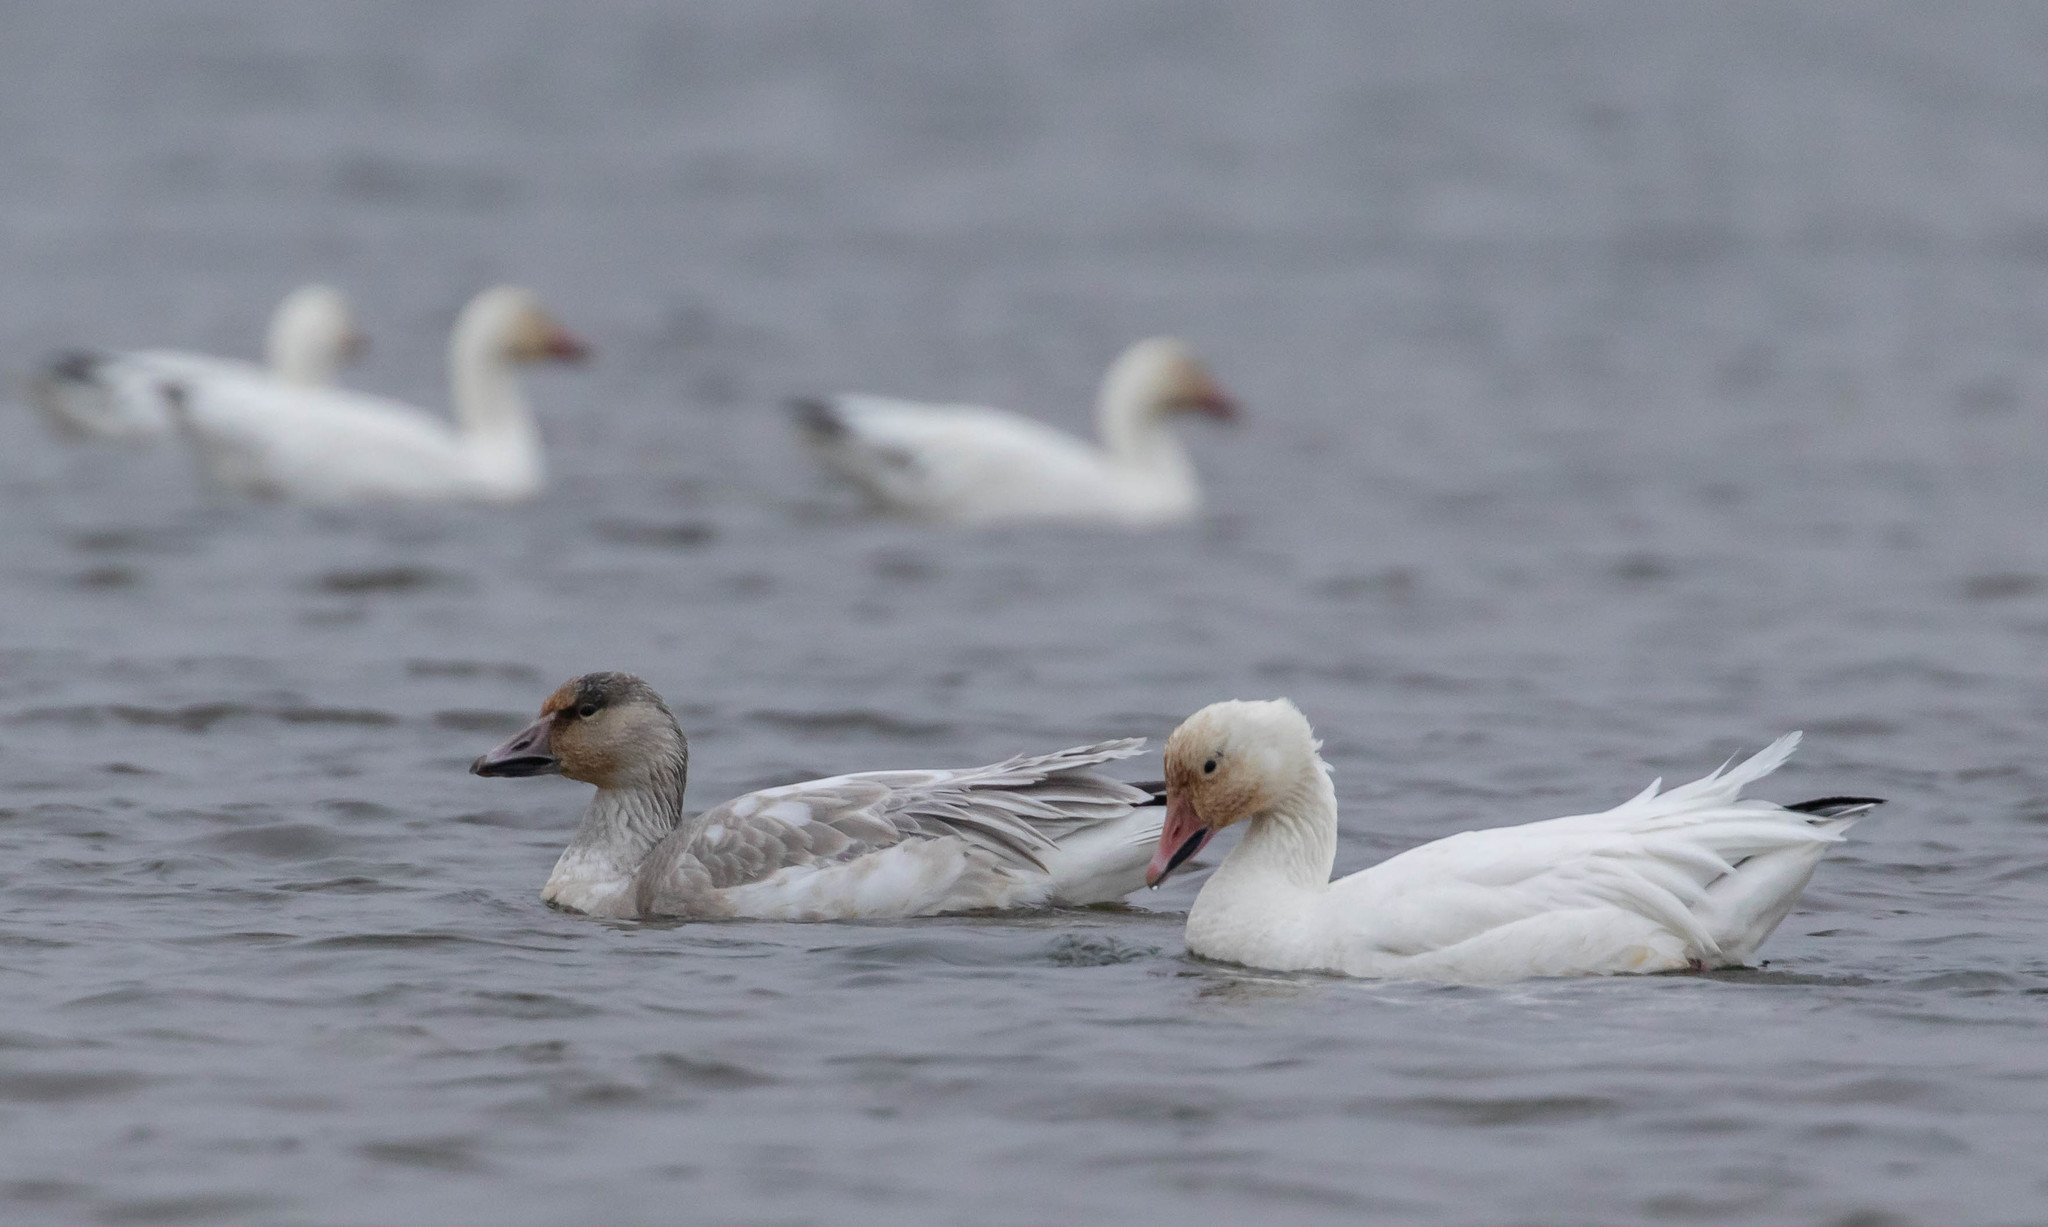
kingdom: Animalia
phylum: Chordata
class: Aves
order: Anseriformes
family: Anatidae
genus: Anser
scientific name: Anser caerulescens
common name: Snow goose
